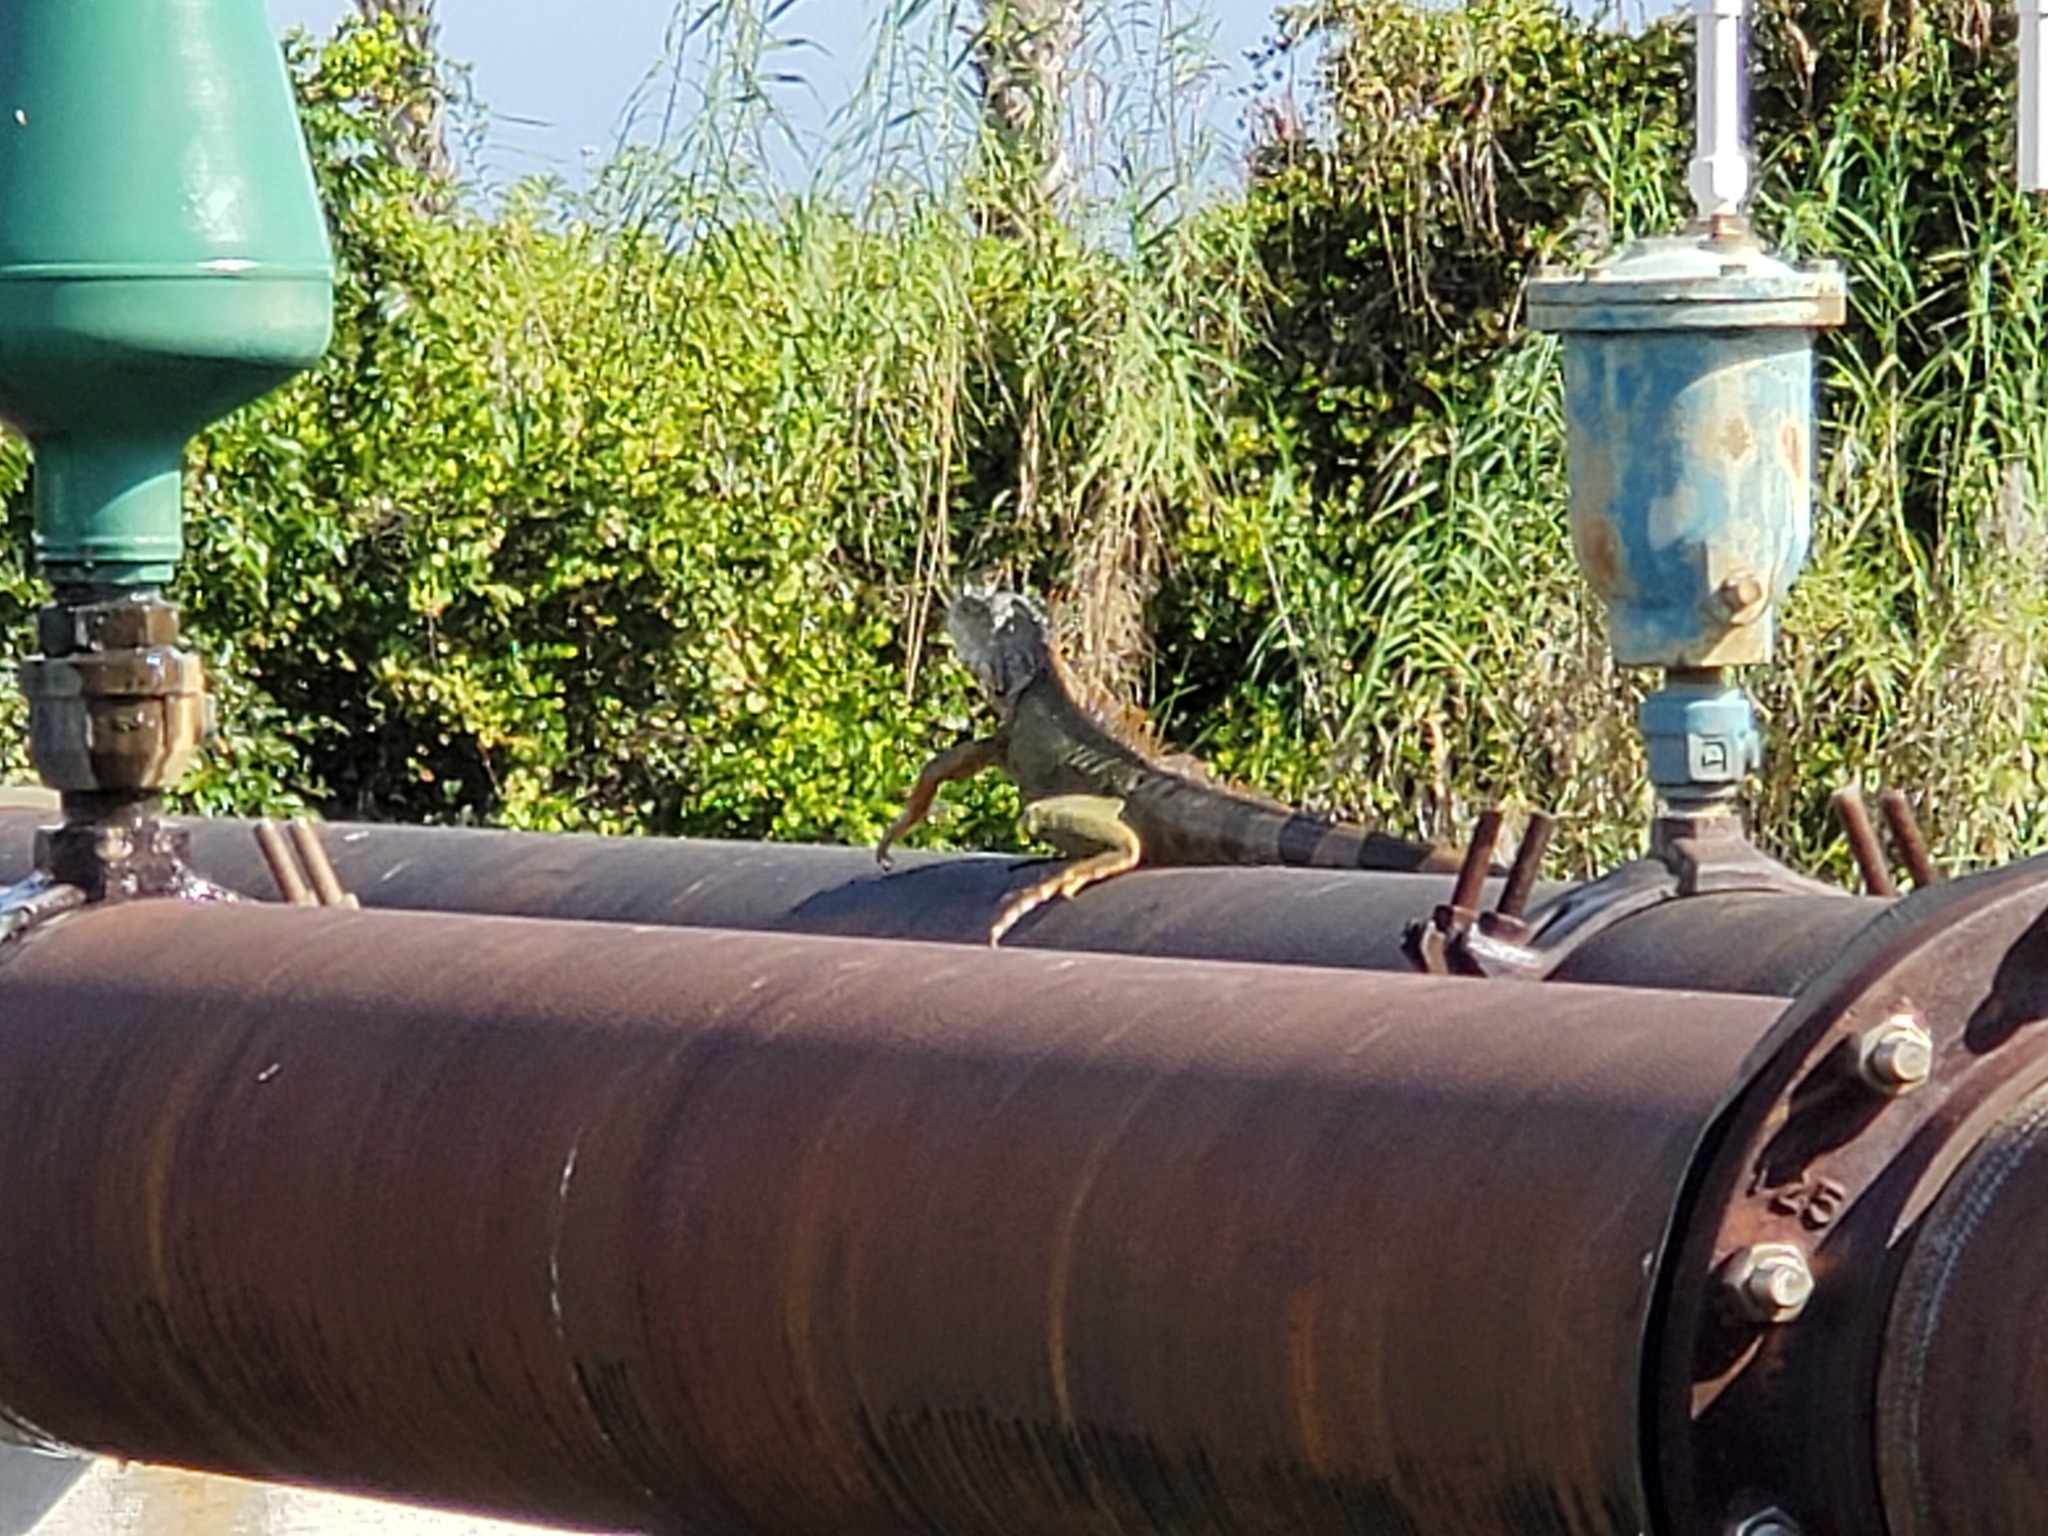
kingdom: Animalia
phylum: Chordata
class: Squamata
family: Iguanidae
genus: Iguana
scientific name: Iguana iguana
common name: Green iguana
